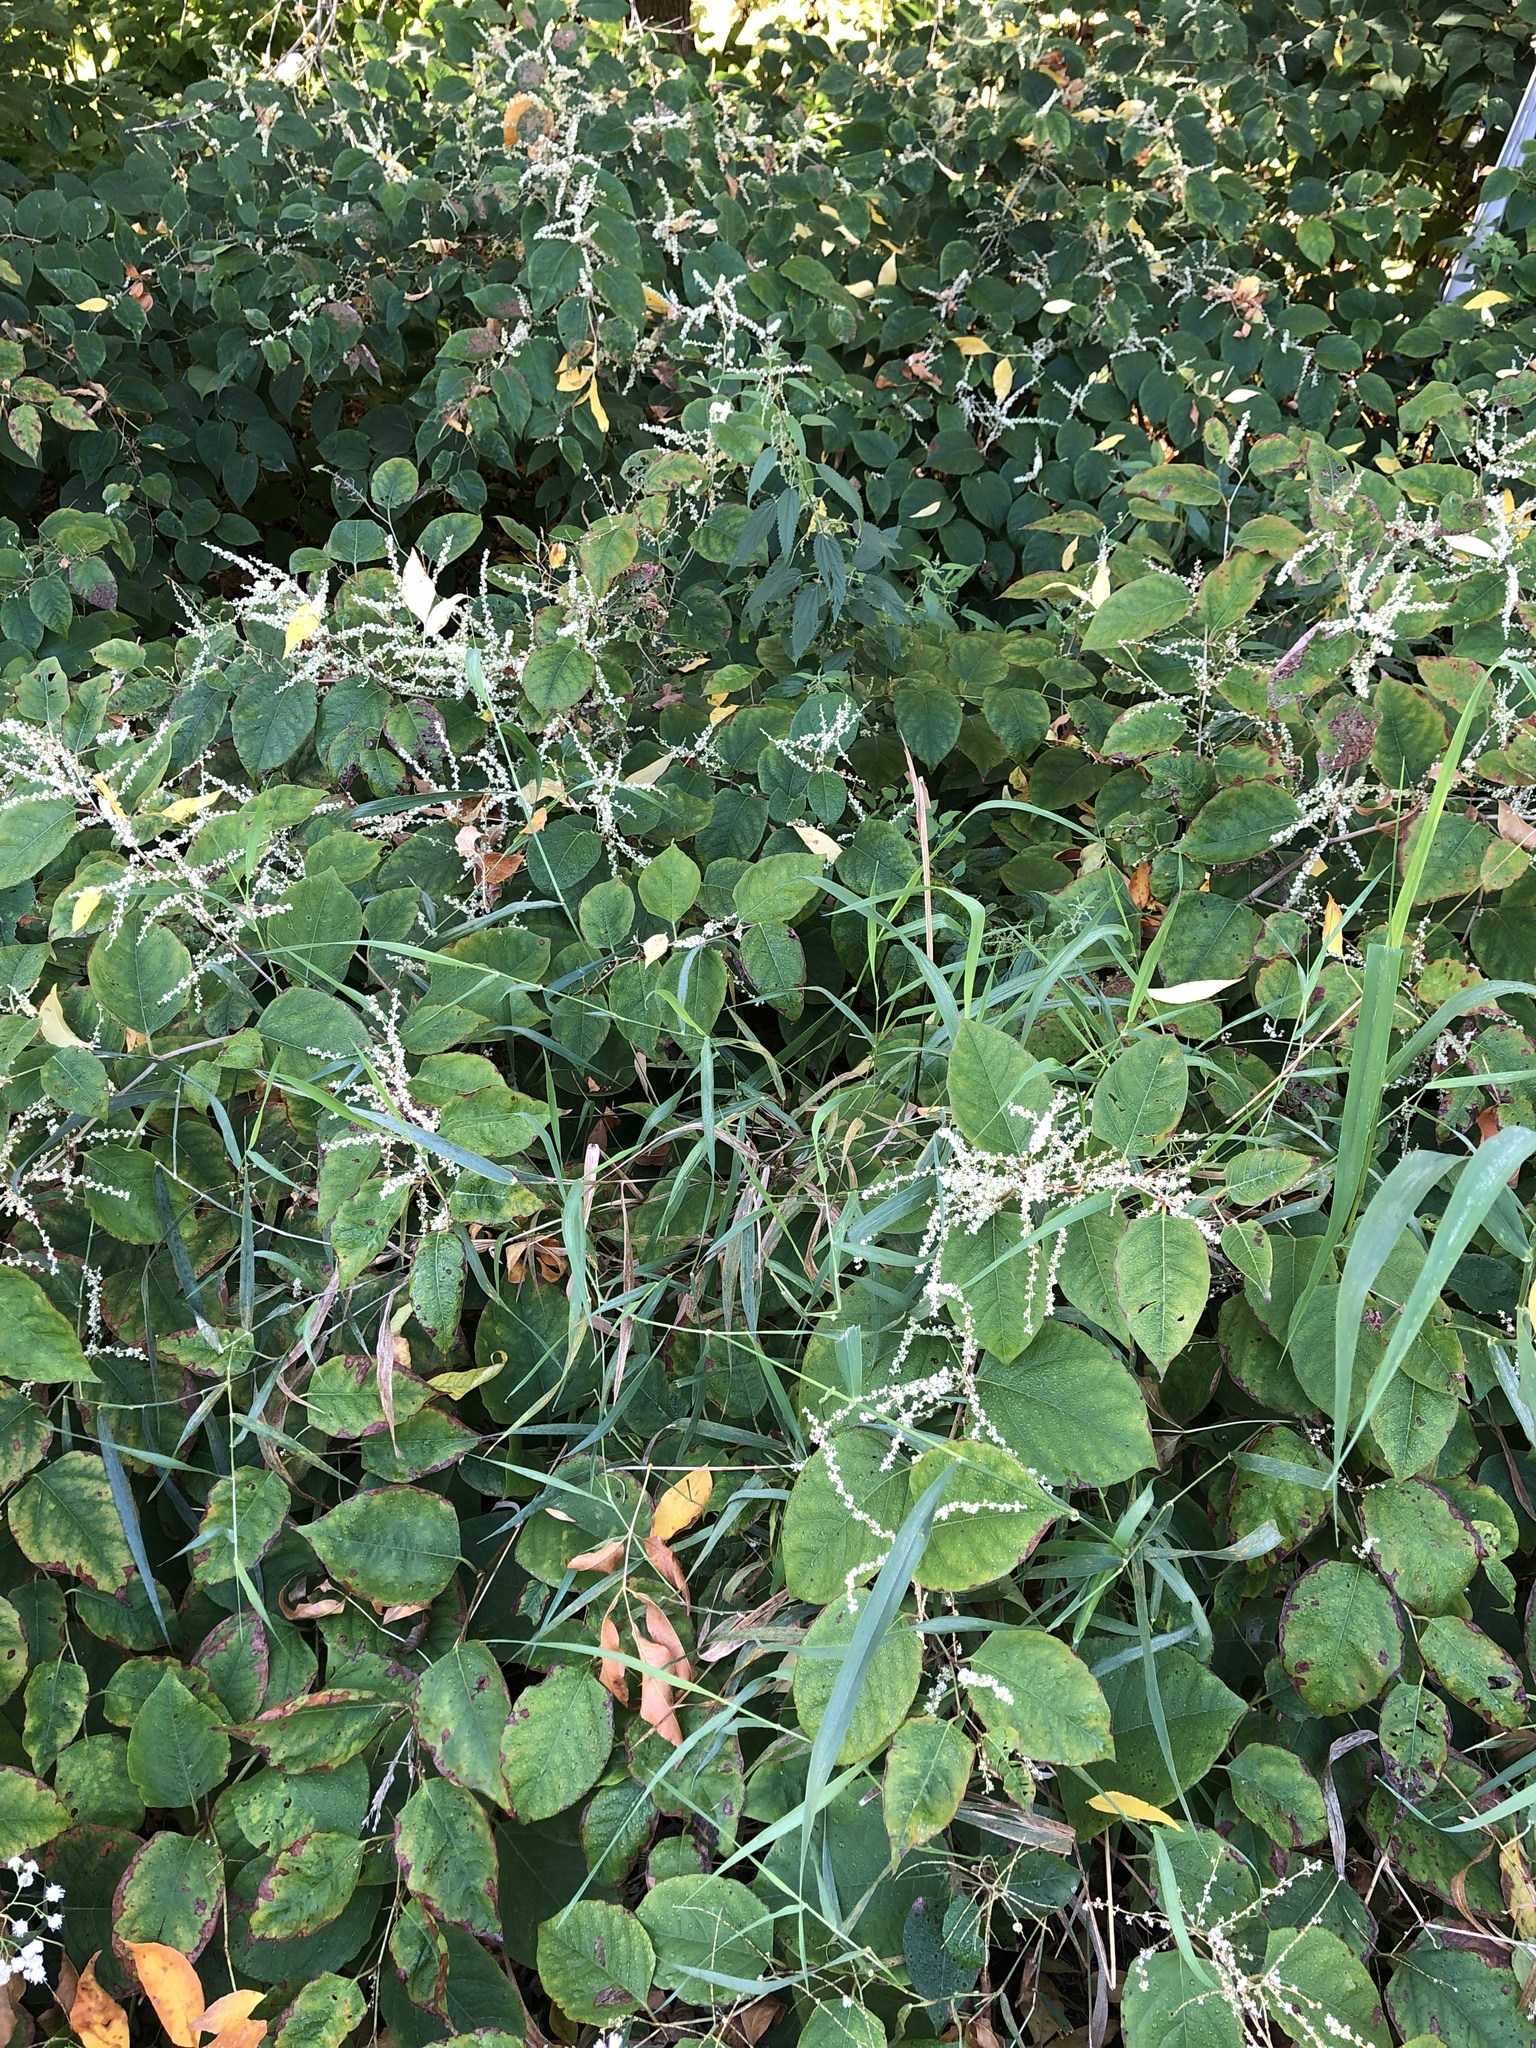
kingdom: Plantae
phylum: Tracheophyta
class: Magnoliopsida
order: Caryophyllales
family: Polygonaceae
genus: Reynoutria
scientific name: Reynoutria japonica
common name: Japanese knotweed
